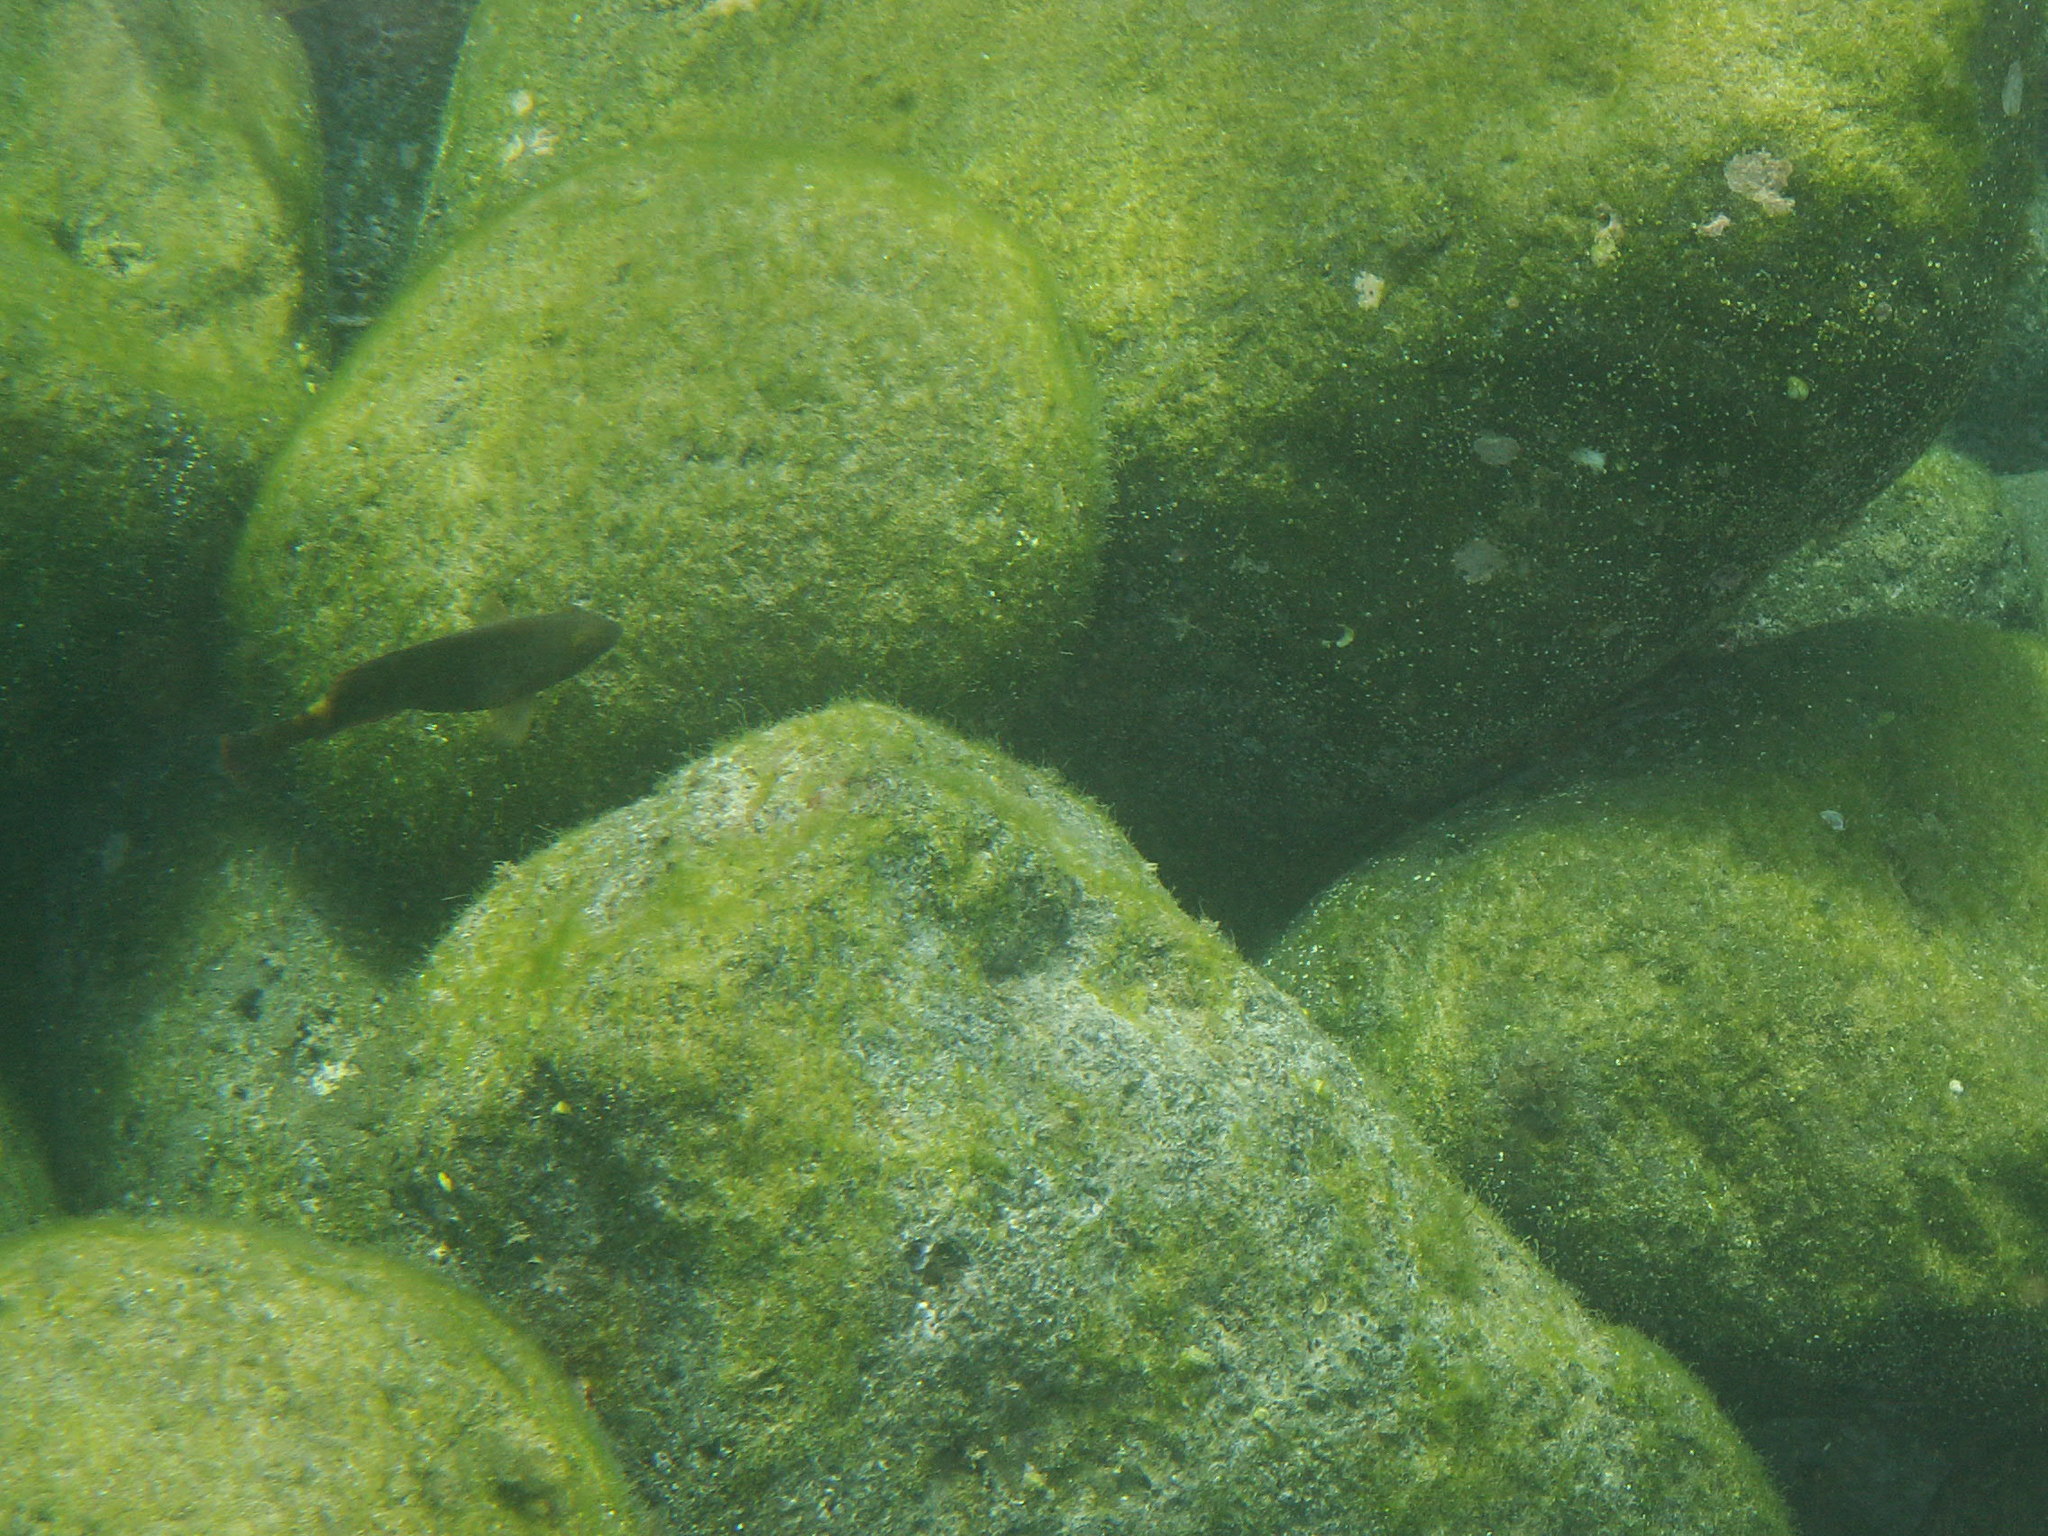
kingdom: Animalia
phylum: Chordata
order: Perciformes
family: Scaridae
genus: Sparisoma
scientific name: Sparisoma cretense
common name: Parrotfish
